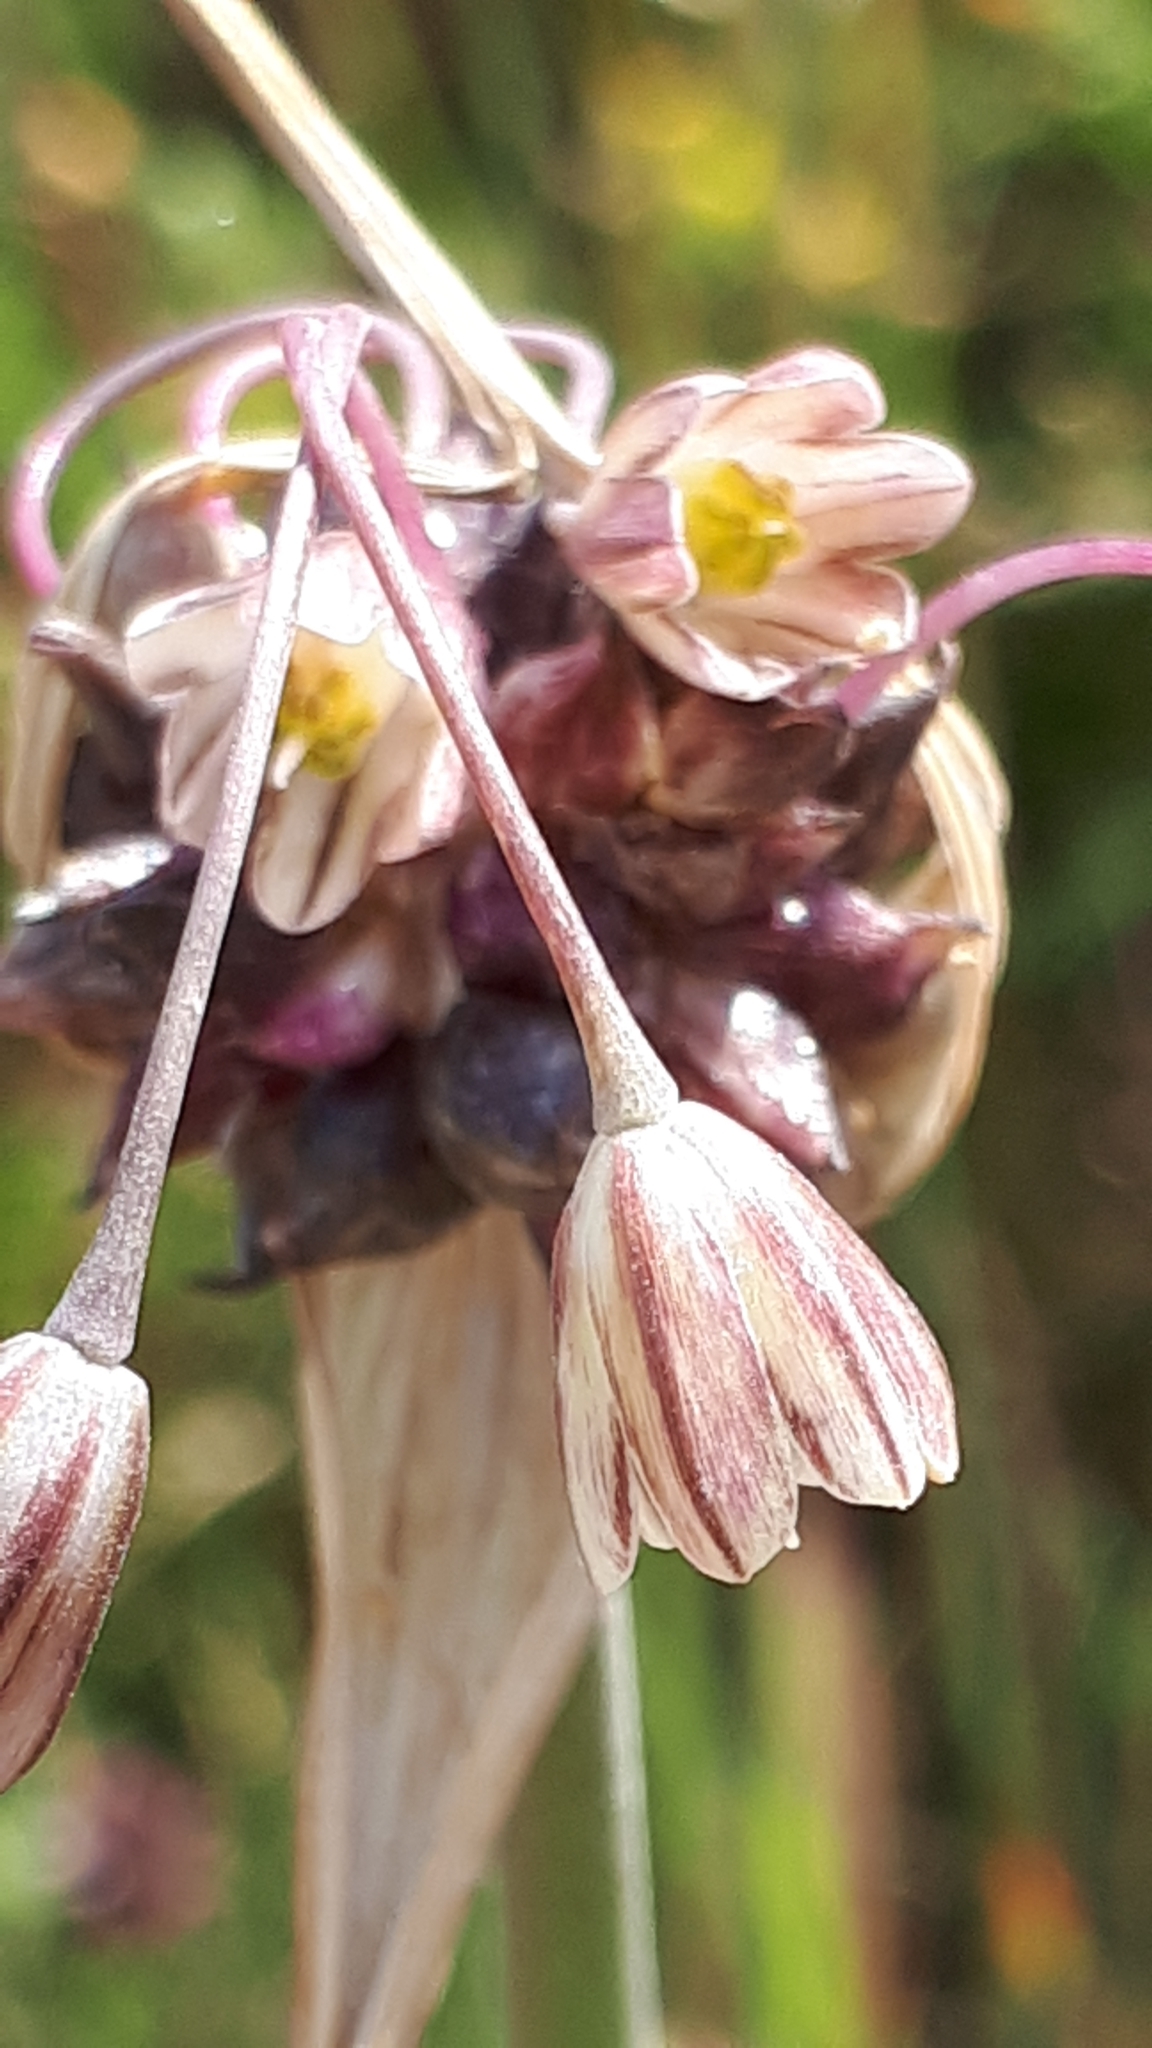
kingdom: Plantae
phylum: Tracheophyta
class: Liliopsida
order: Asparagales
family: Amaryllidaceae
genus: Allium
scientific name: Allium oleraceum
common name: Field garlic
